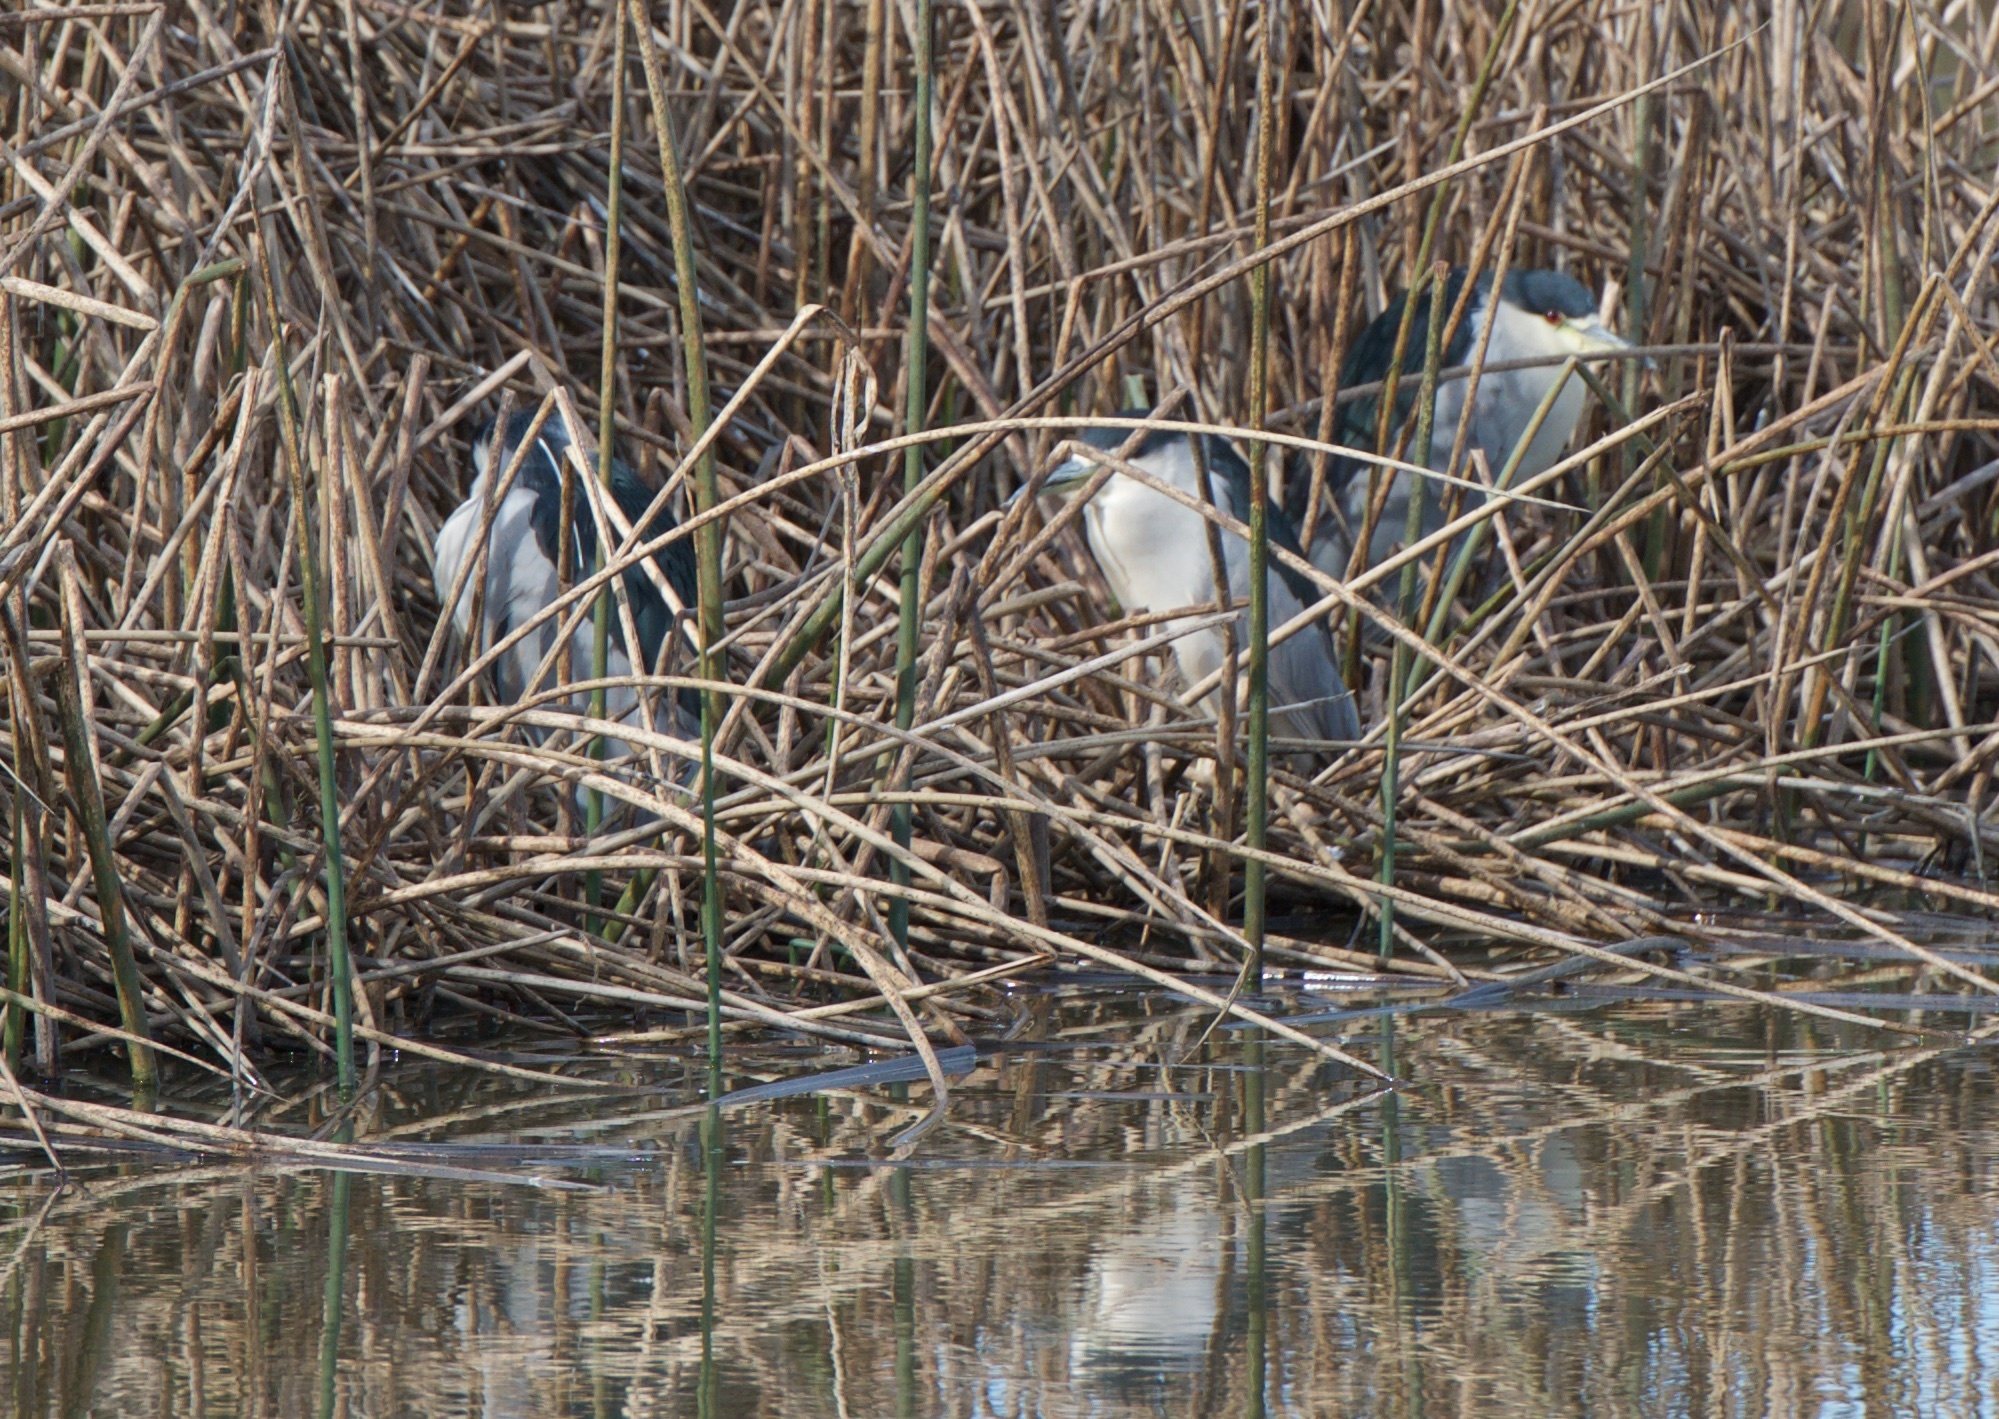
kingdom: Animalia
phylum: Chordata
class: Aves
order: Pelecaniformes
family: Ardeidae
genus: Nycticorax
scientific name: Nycticorax nycticorax
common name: Black-crowned night heron
